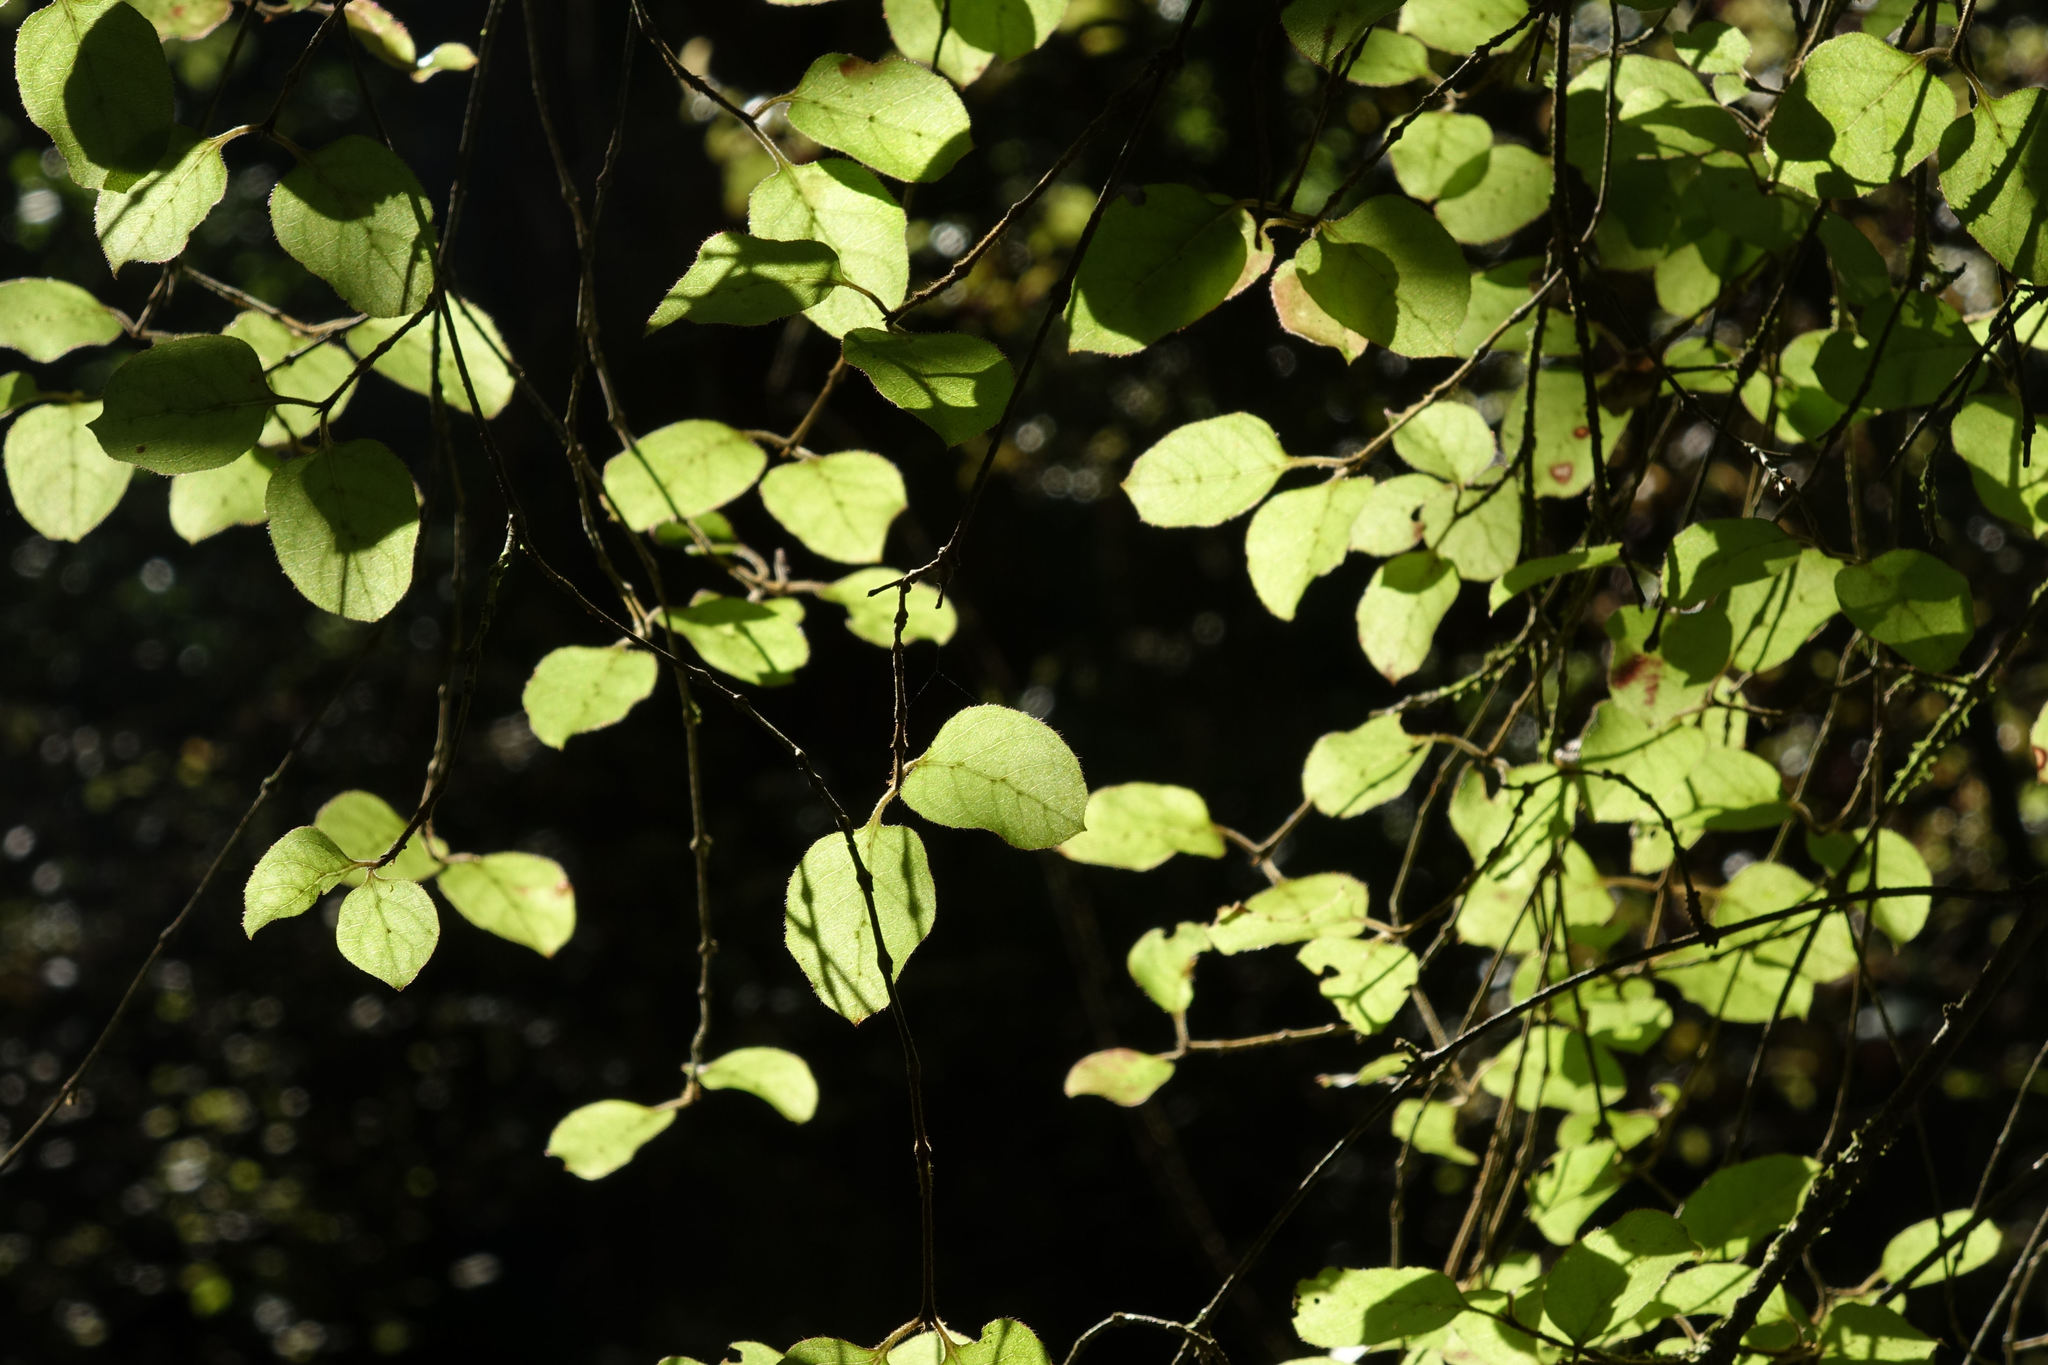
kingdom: Plantae
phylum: Tracheophyta
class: Magnoliopsida
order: Gentianales
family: Rubiaceae
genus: Coprosma
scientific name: Coprosma rotundifolia
